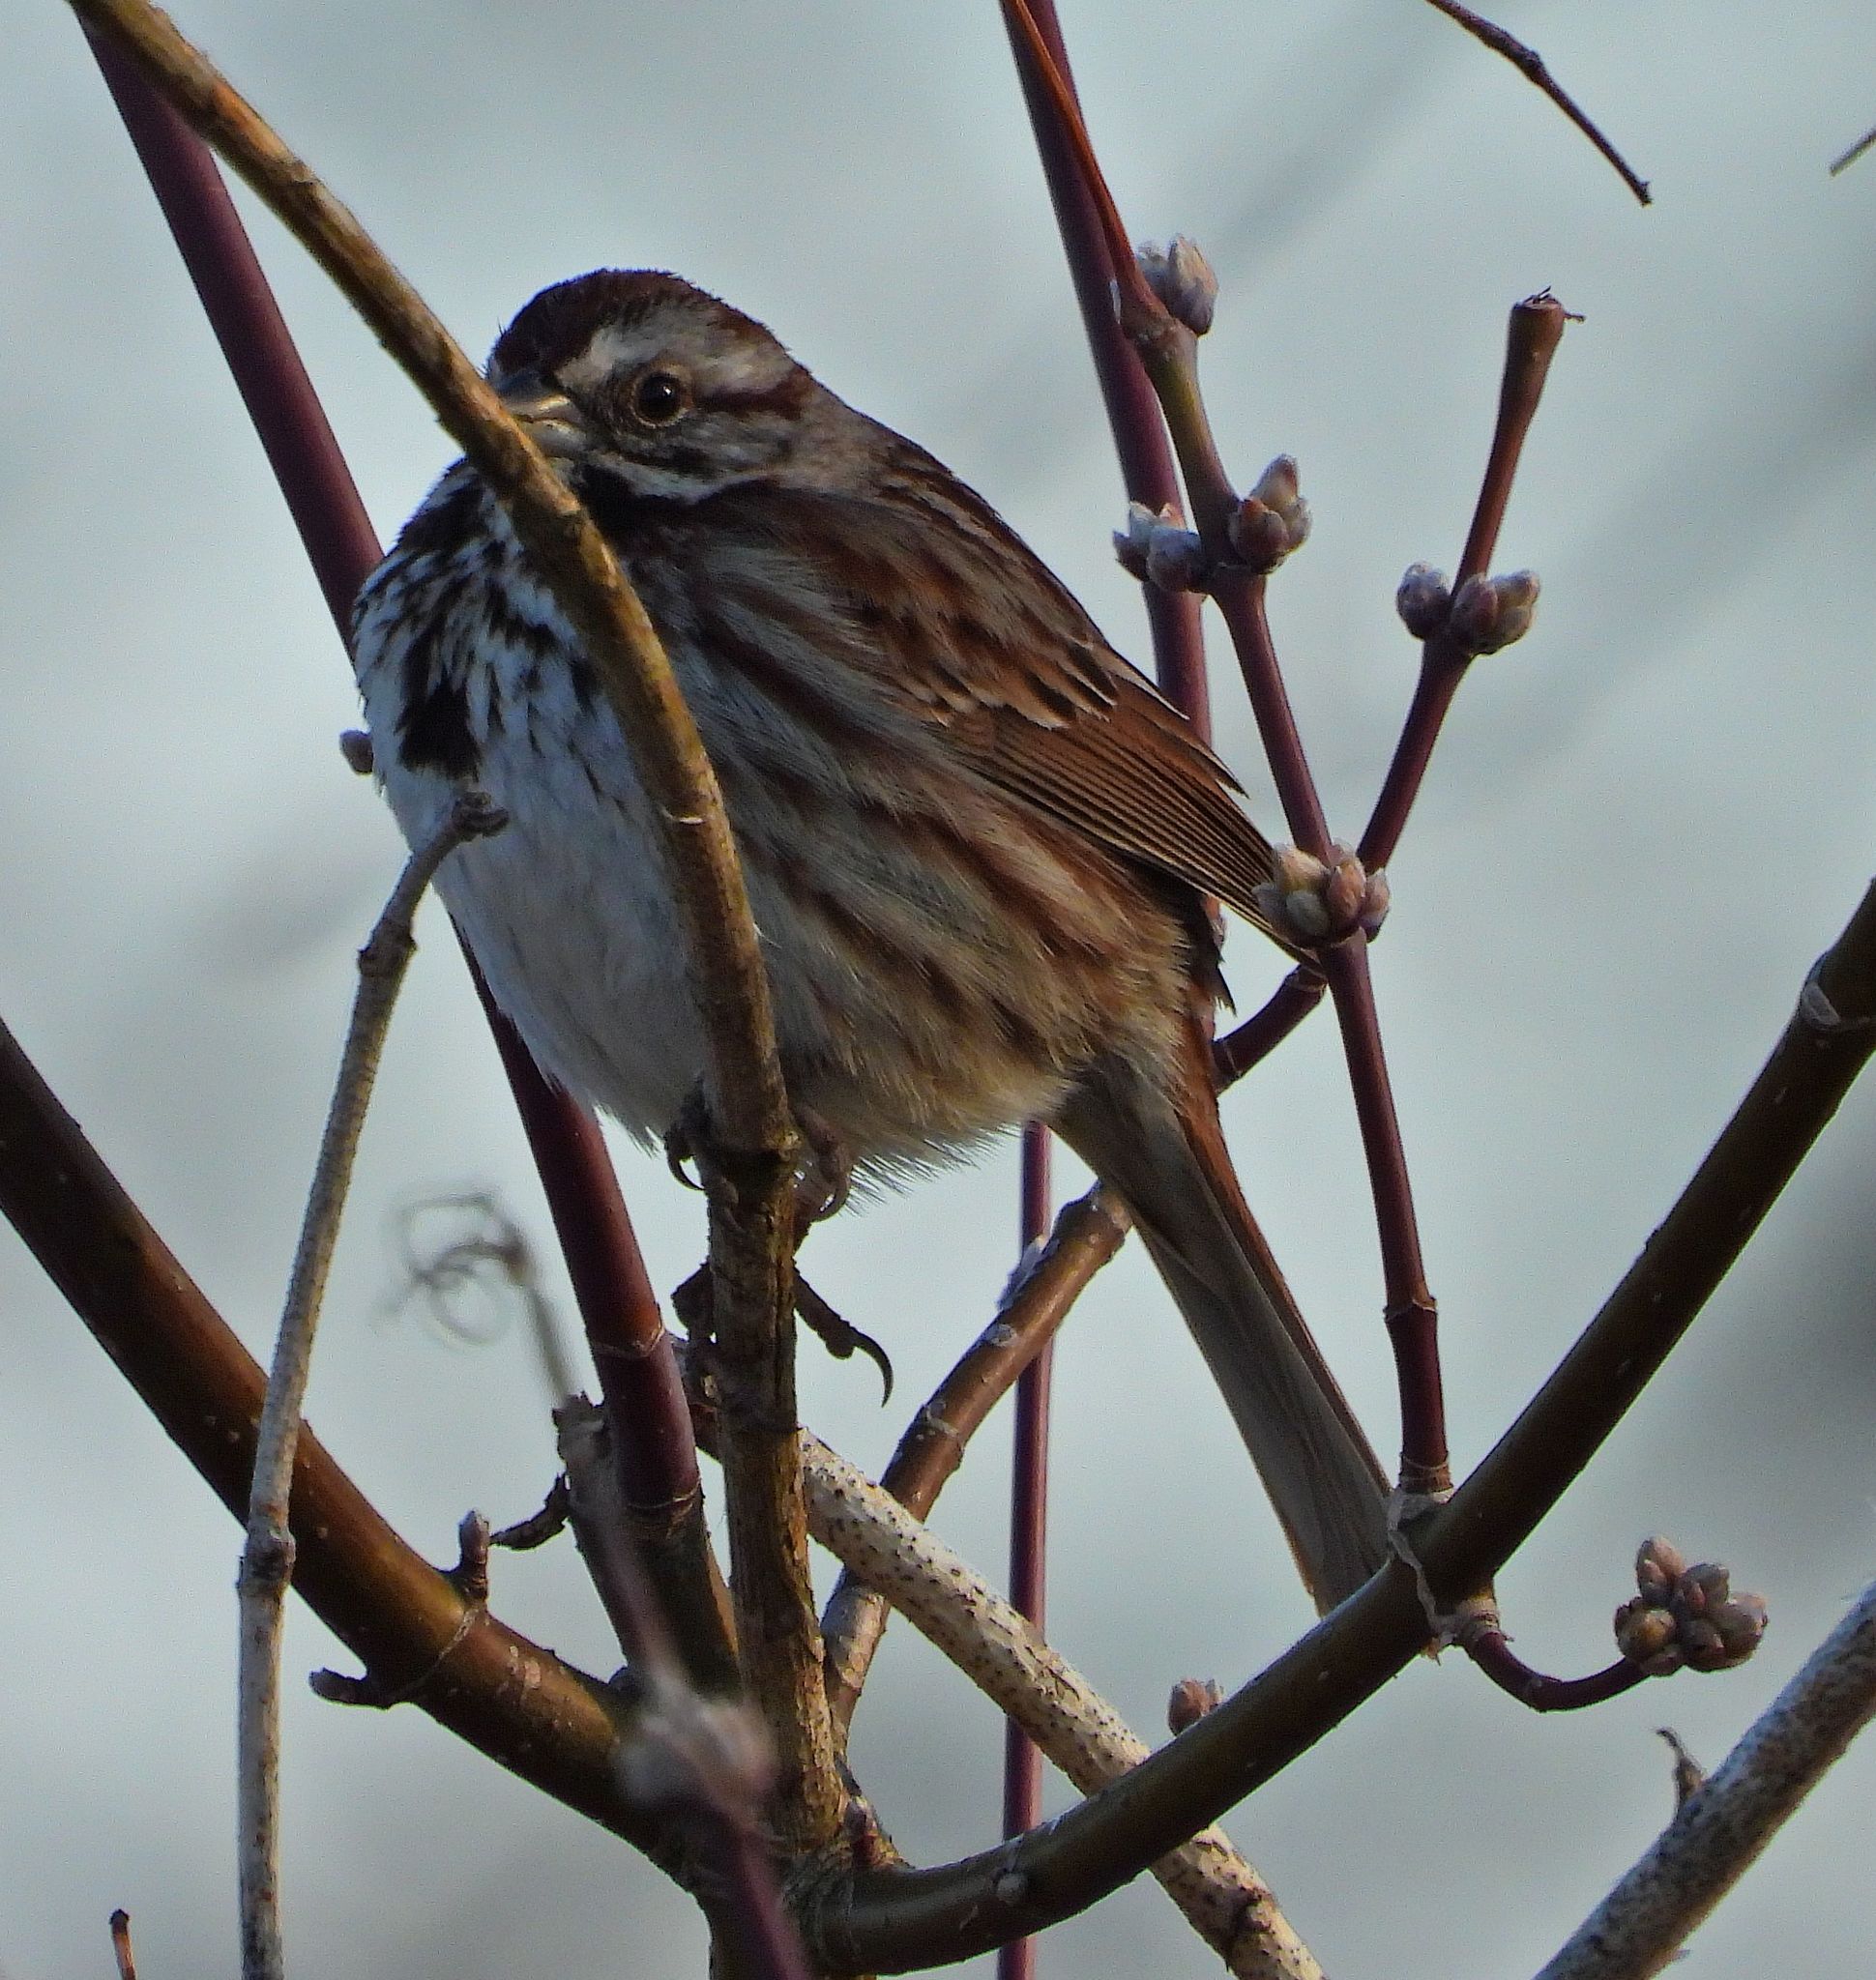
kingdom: Animalia
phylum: Chordata
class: Aves
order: Passeriformes
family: Passerellidae
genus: Melospiza
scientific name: Melospiza melodia
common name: Song sparrow
